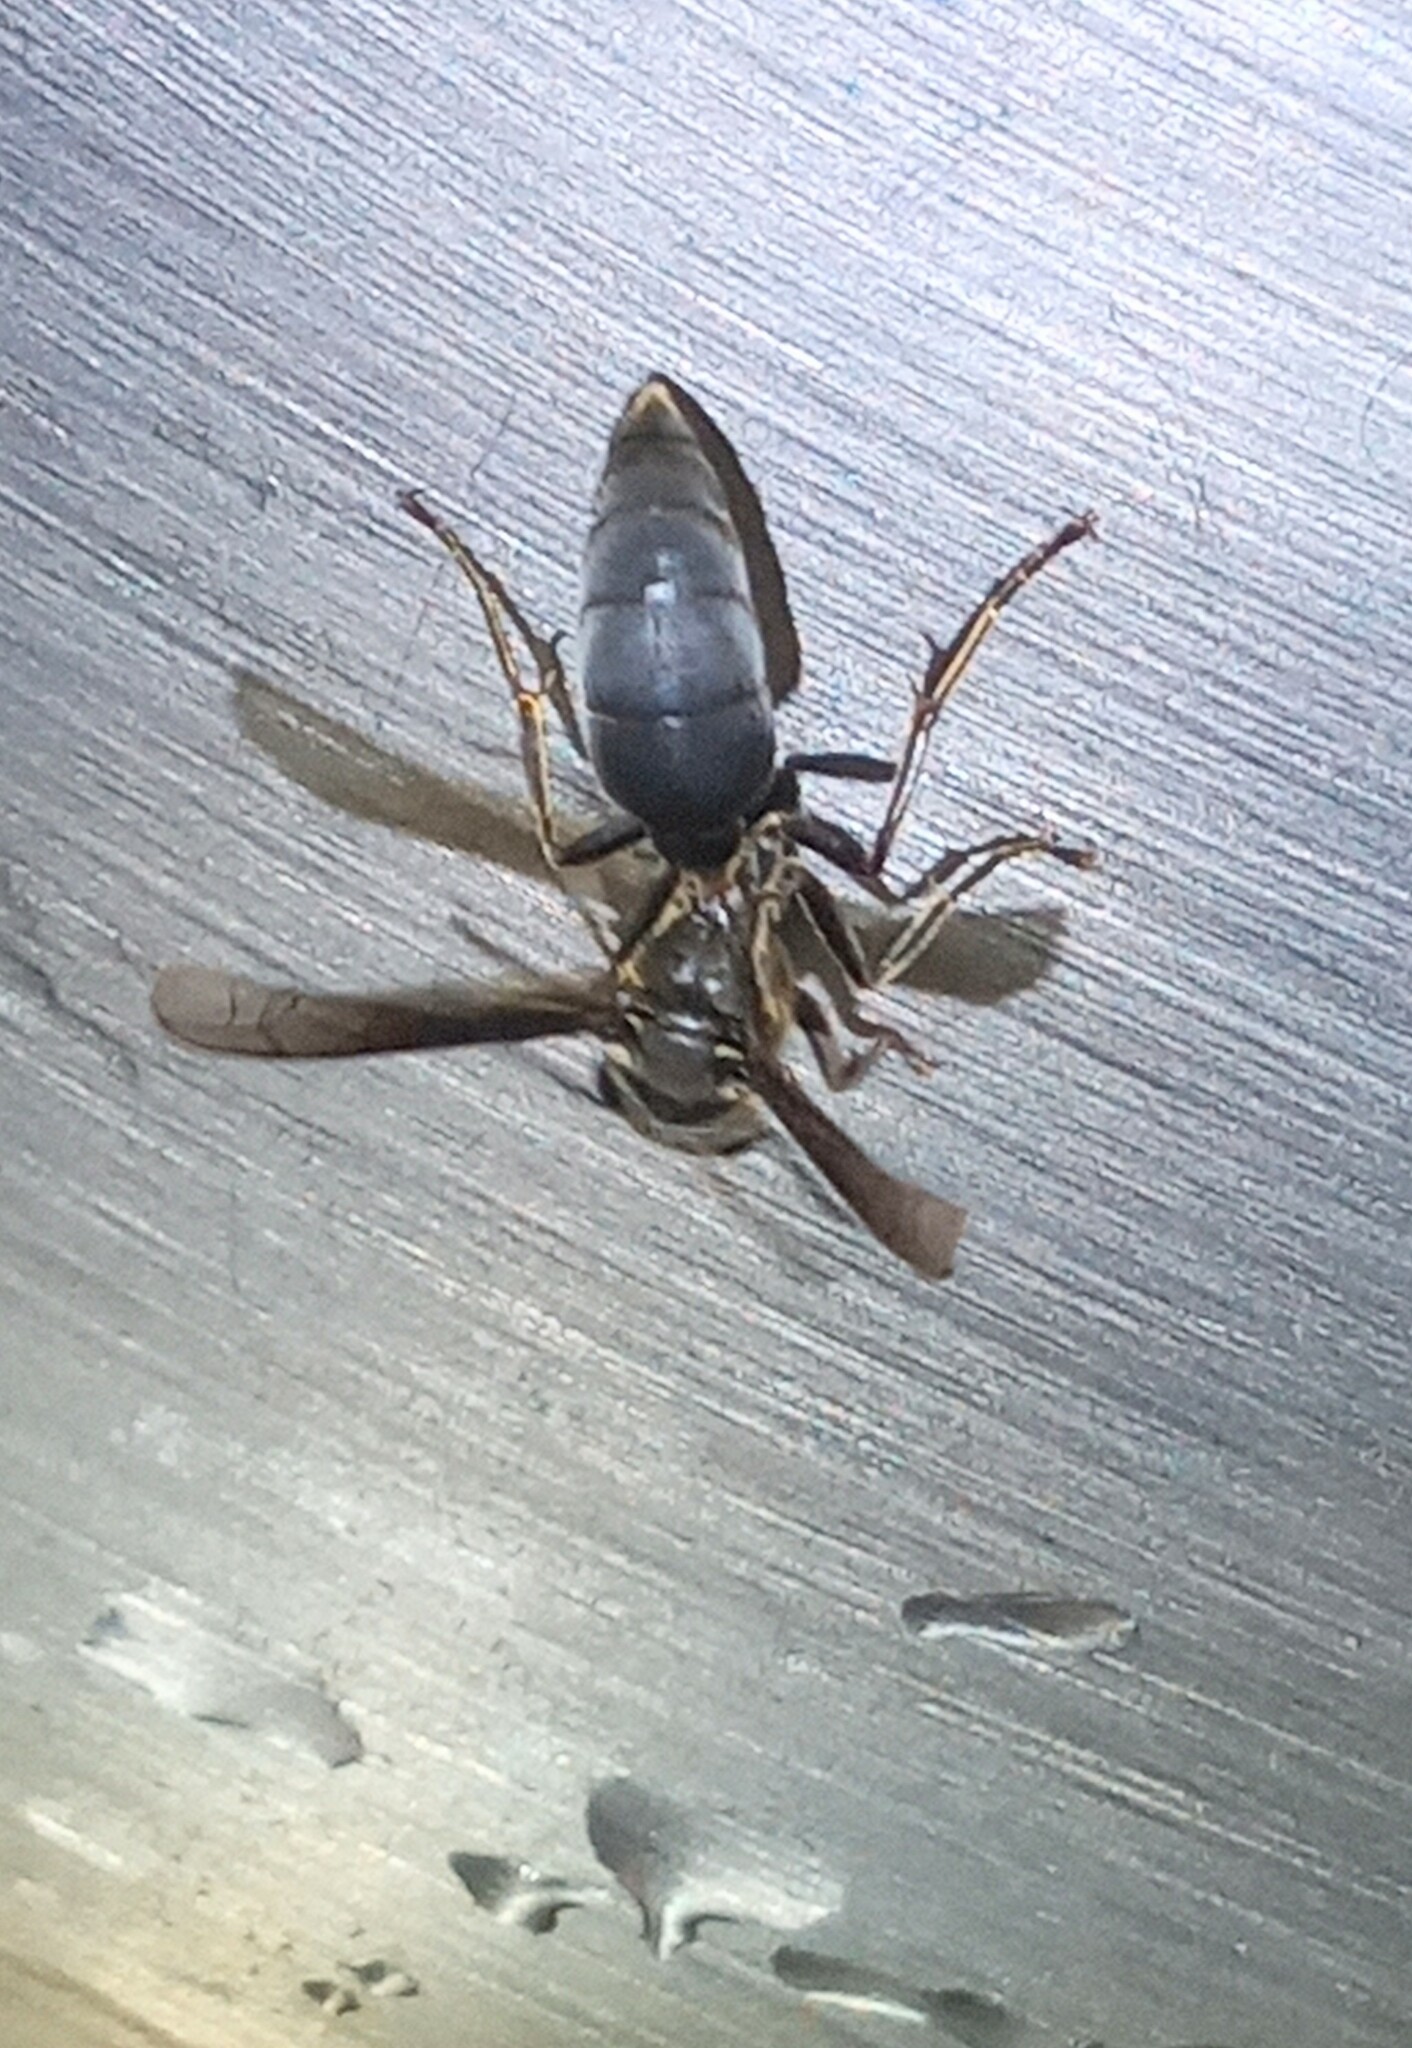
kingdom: Animalia
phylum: Arthropoda
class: Insecta
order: Hymenoptera
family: Eumenidae
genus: Polybia
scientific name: Polybia ignobilis
